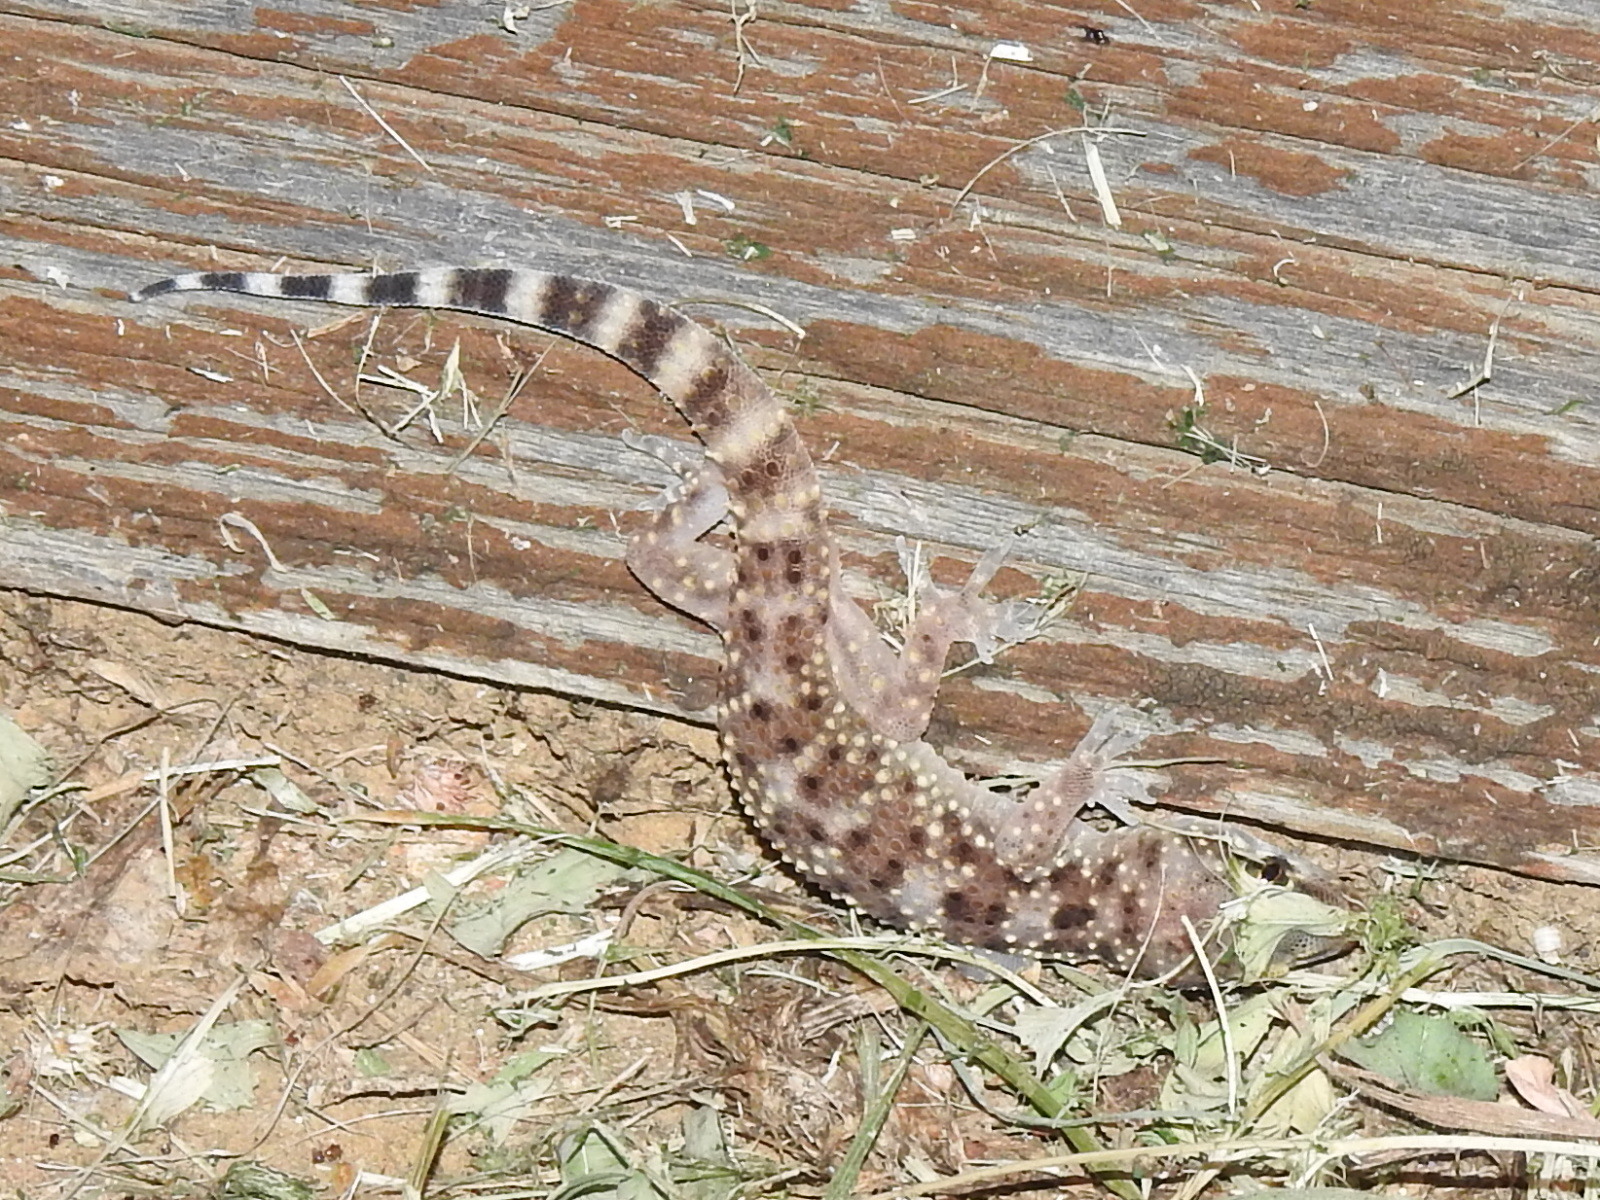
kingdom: Animalia
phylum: Chordata
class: Squamata
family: Gekkonidae
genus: Hemidactylus
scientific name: Hemidactylus turcicus
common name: Turkish gecko
